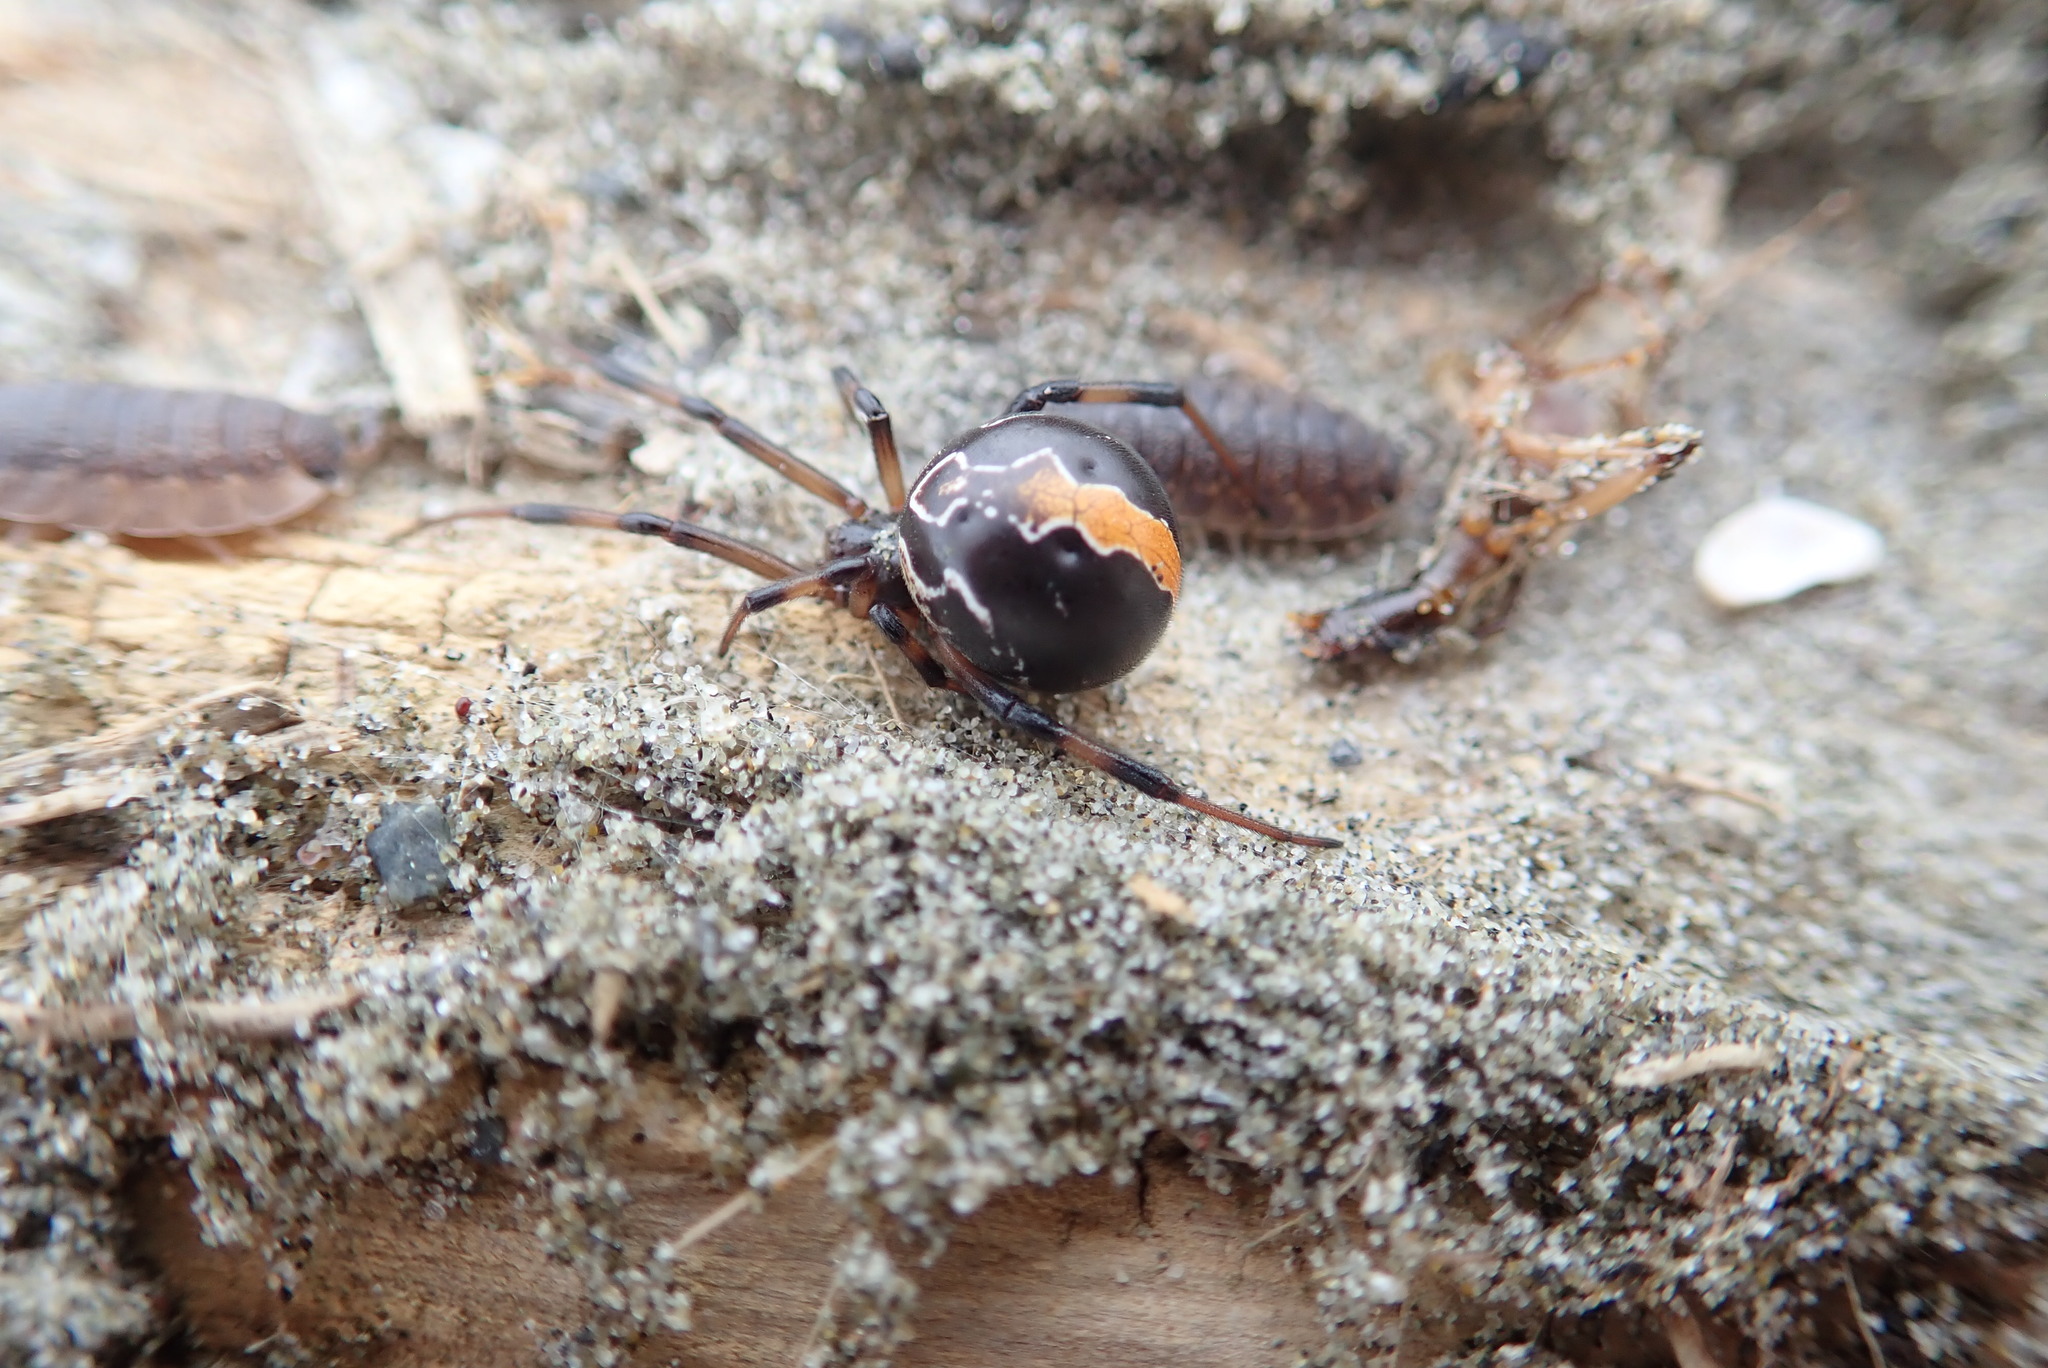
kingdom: Animalia
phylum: Arthropoda
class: Arachnida
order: Araneae
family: Theridiidae
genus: Latrodectus
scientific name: Latrodectus katipo
